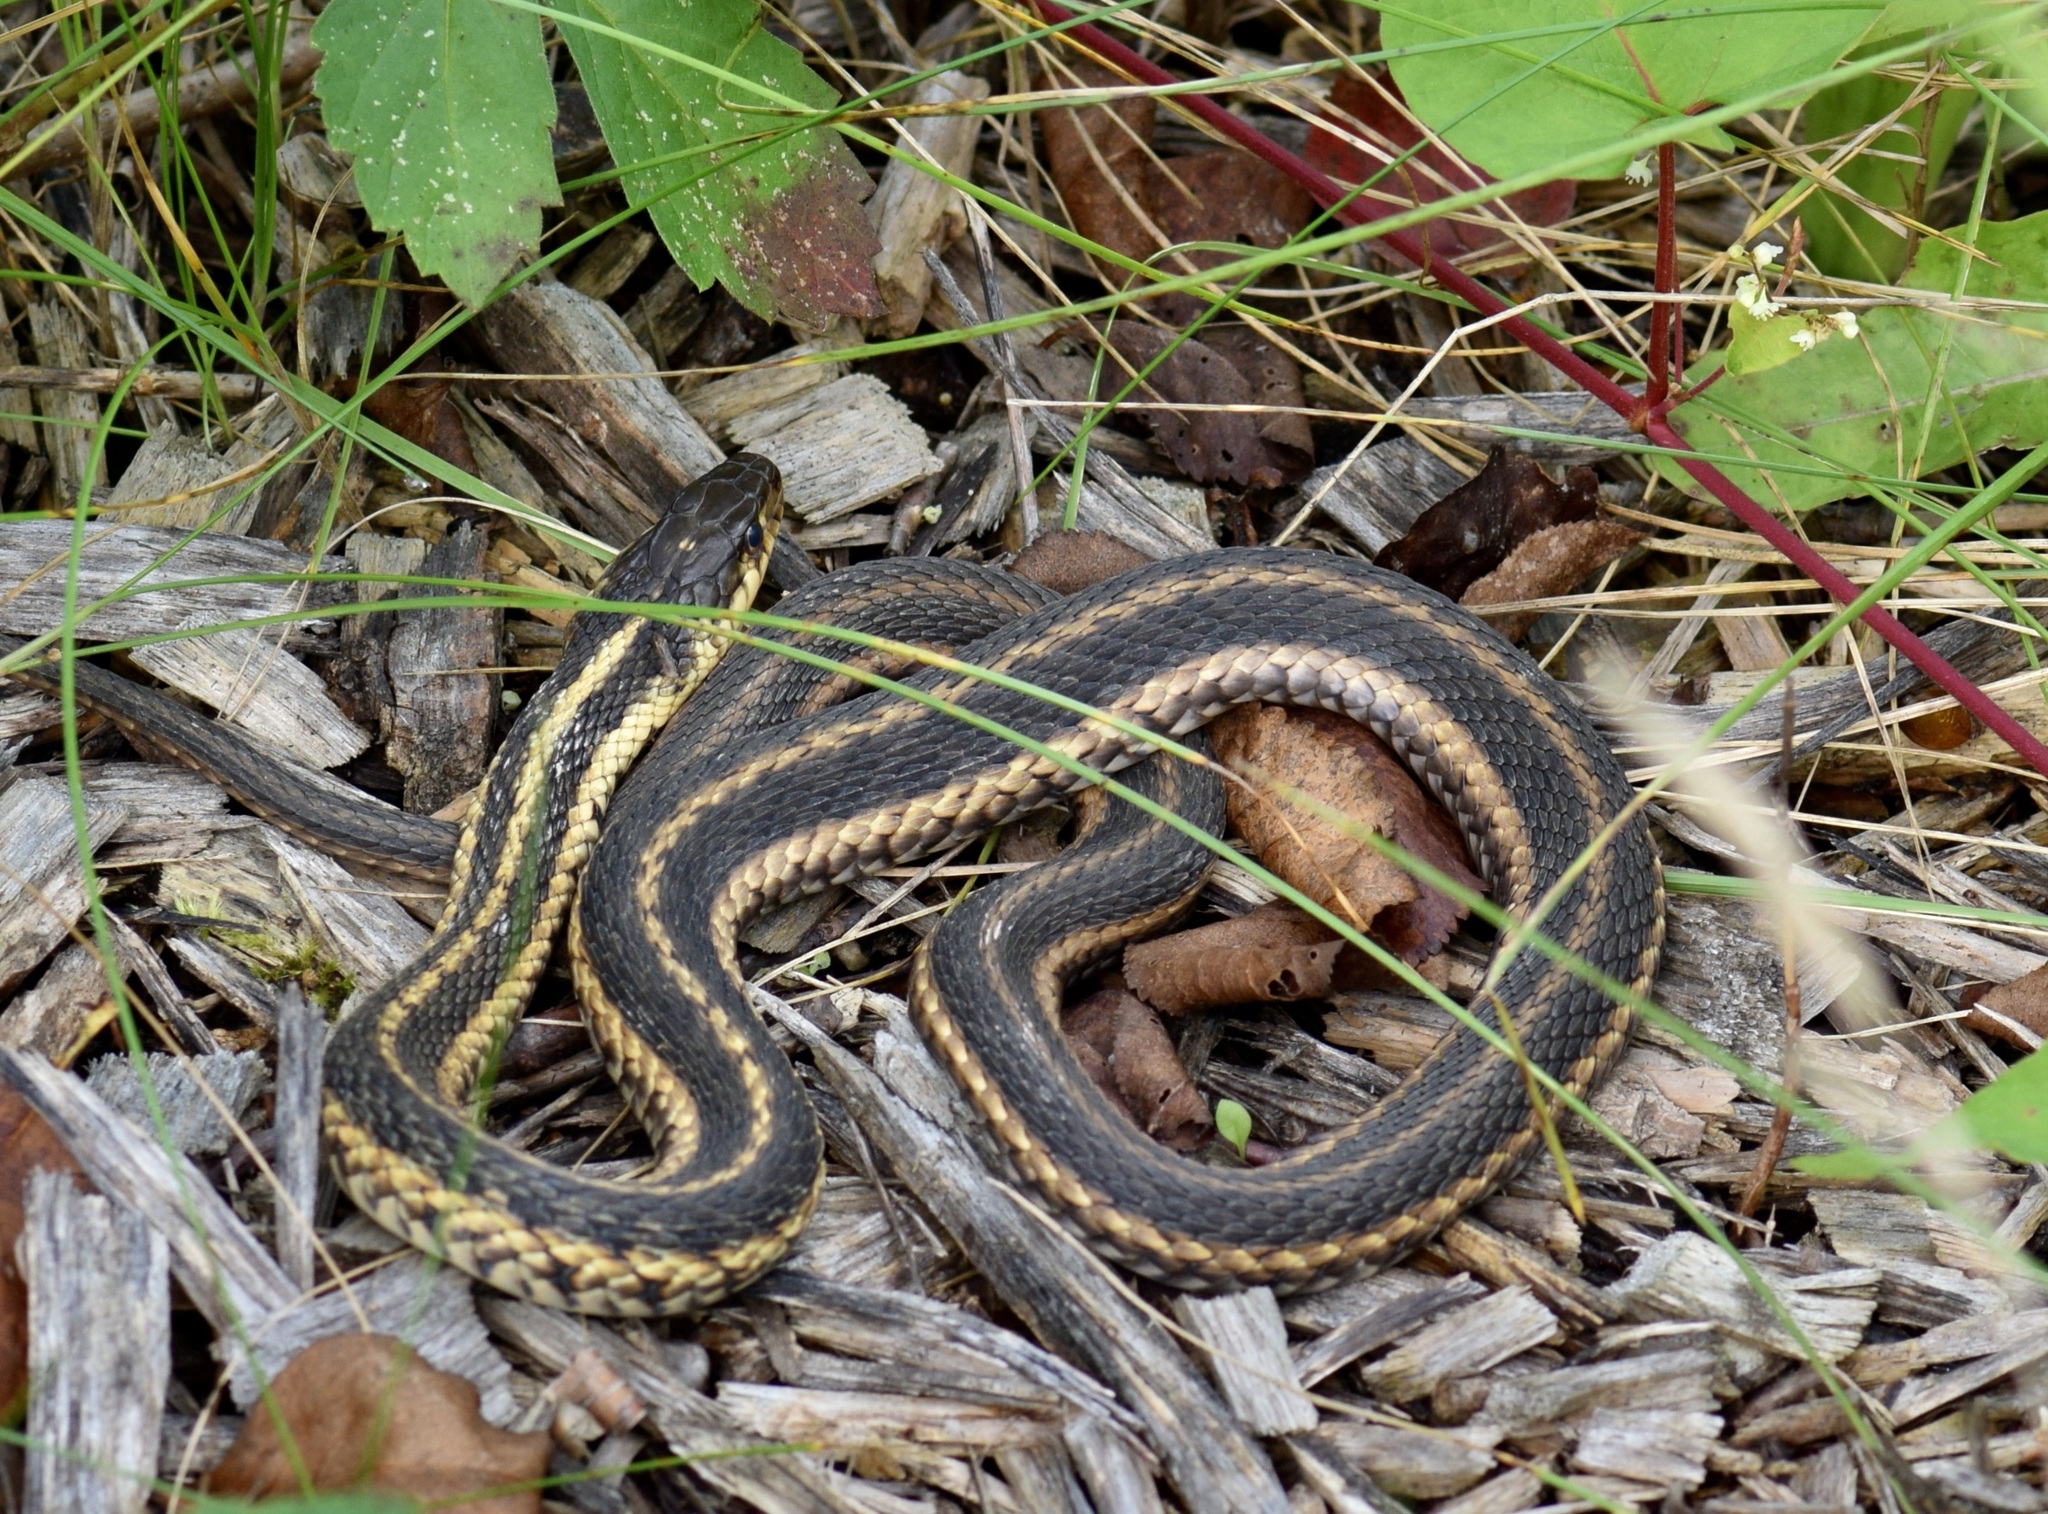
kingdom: Animalia
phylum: Chordata
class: Squamata
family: Colubridae
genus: Thamnophis
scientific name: Thamnophis sirtalis
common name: Common garter snake
